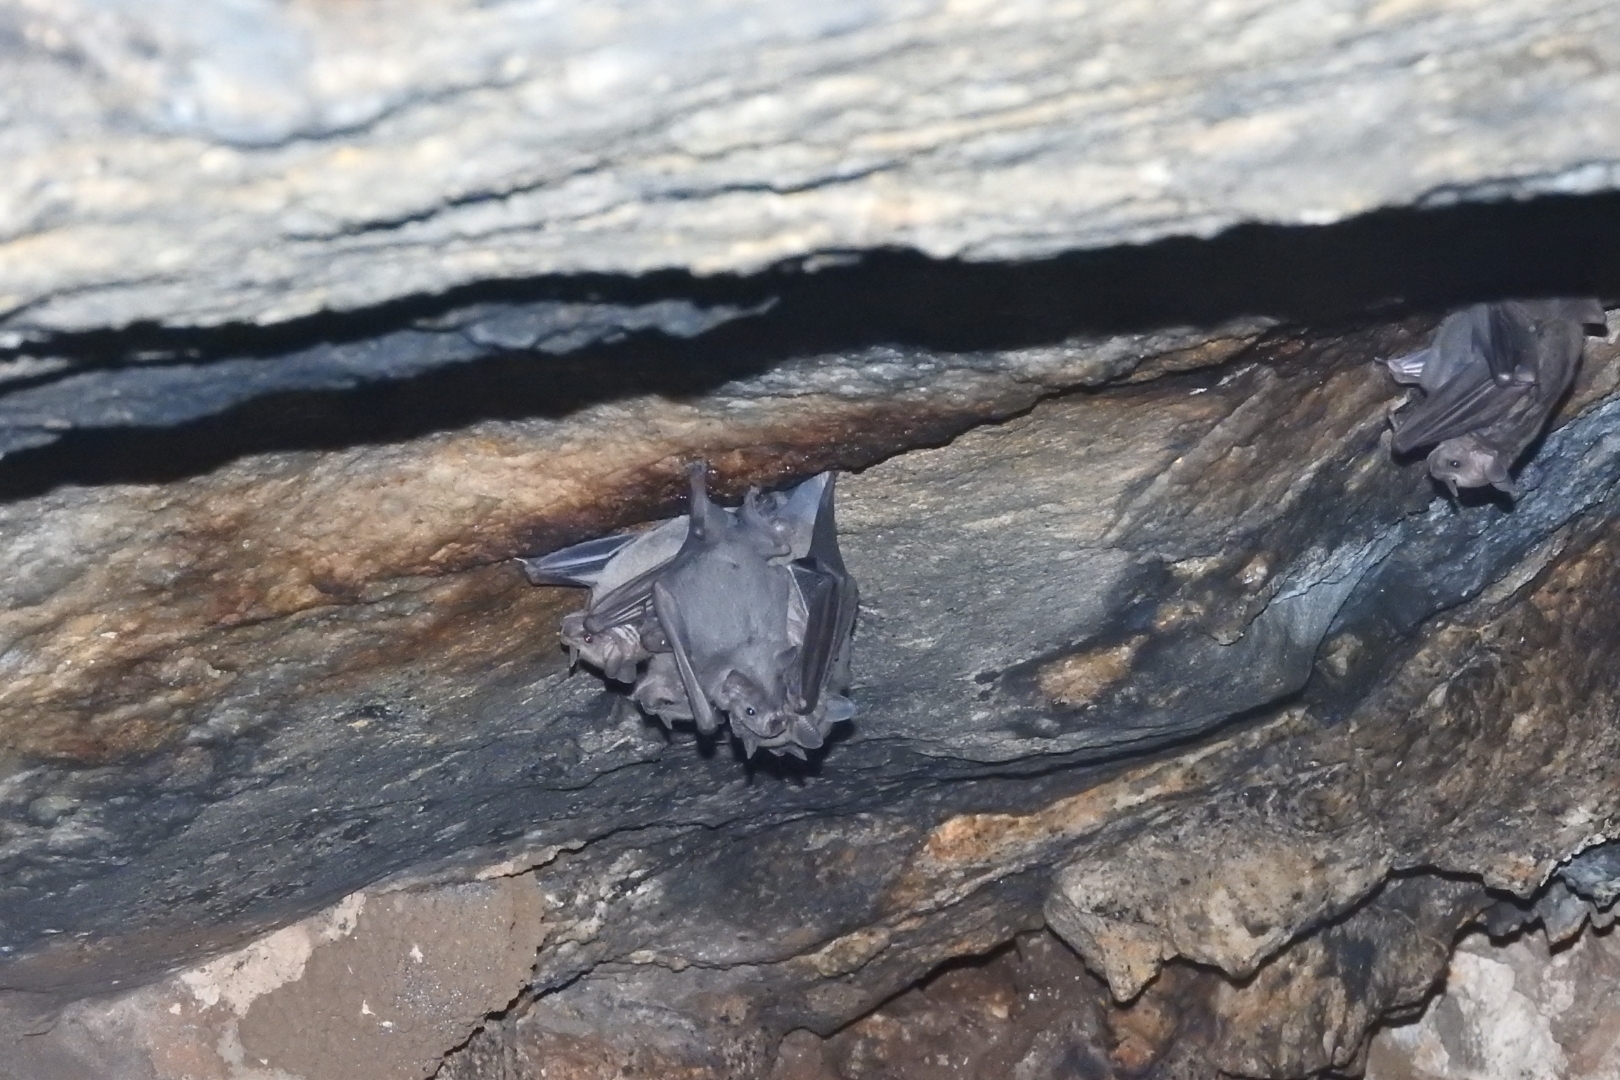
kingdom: Animalia
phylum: Chordata
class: Mammalia
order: Chiroptera
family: Phyllostomidae
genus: Artibeus
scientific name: Artibeus jamaicensis
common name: Jamaican fruit-eating bat
